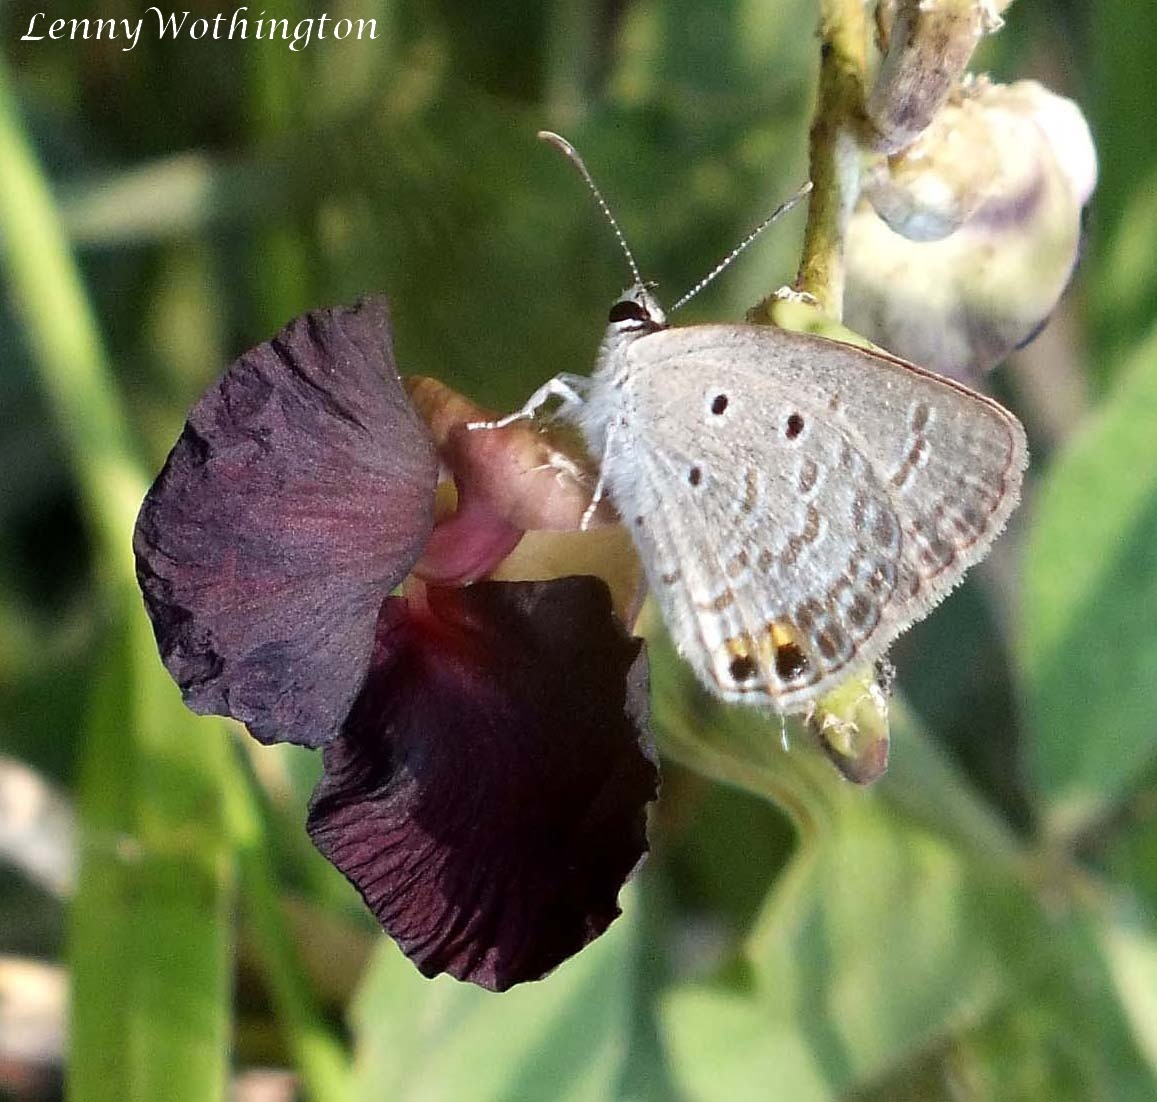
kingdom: Animalia
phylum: Arthropoda
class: Insecta
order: Lepidoptera
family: Lycaenidae
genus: Euchrysops
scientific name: Euchrysops cnejus
